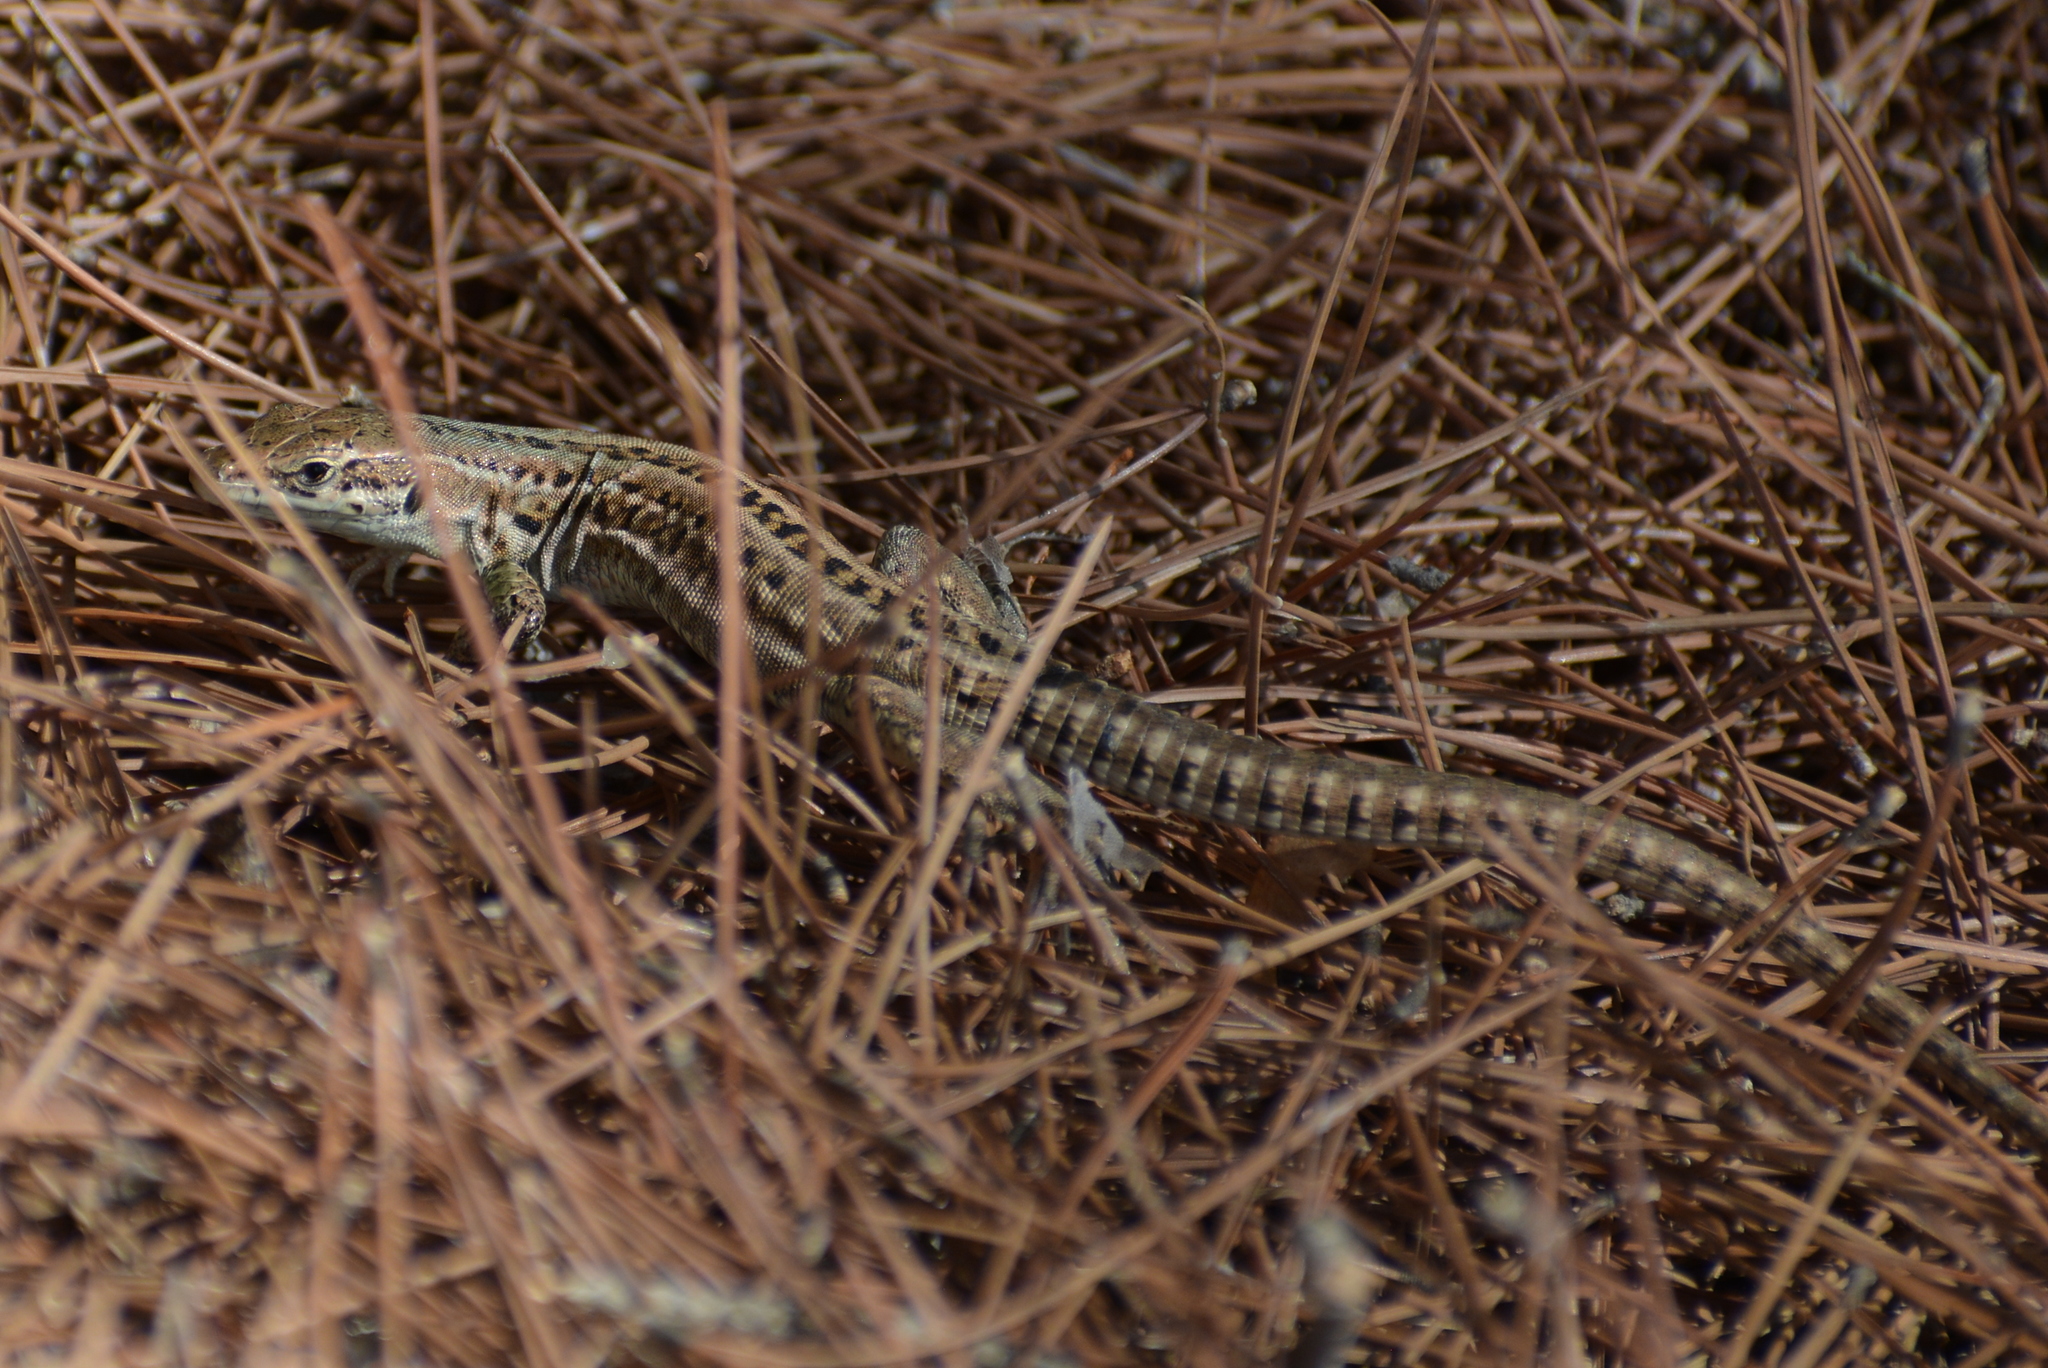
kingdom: Animalia
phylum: Chordata
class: Squamata
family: Lacertidae
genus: Podarcis
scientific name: Podarcis siculus
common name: Italian wall lizard
